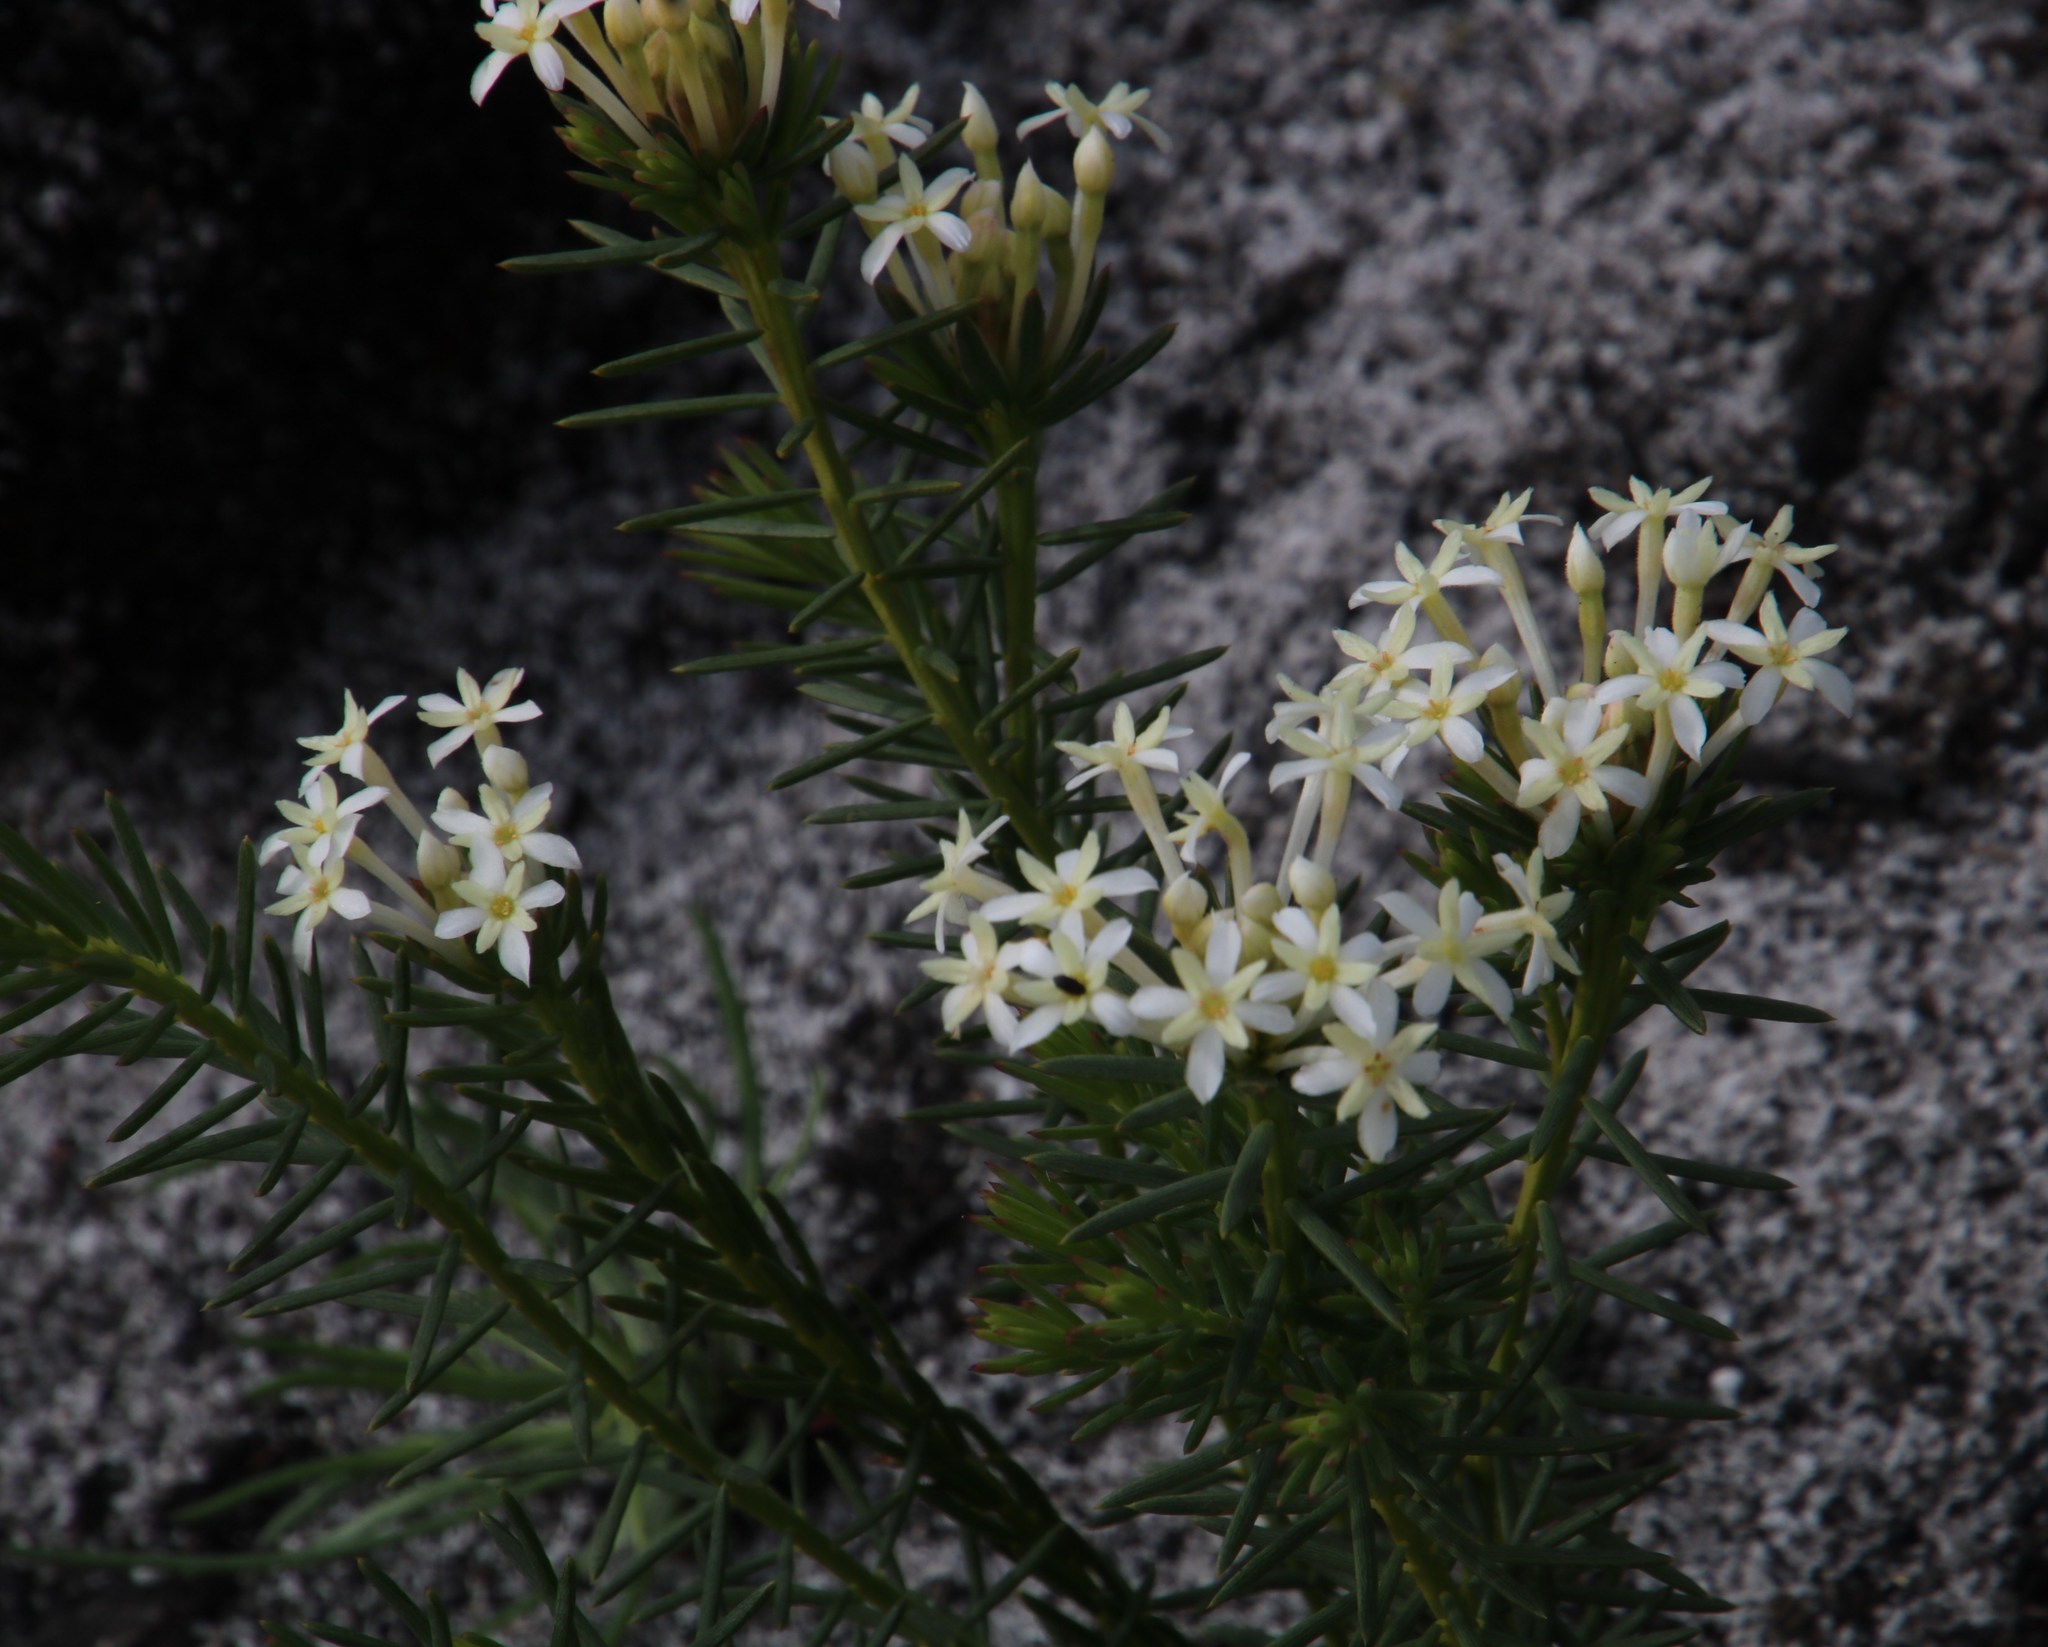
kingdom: Plantae
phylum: Tracheophyta
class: Magnoliopsida
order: Malvales
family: Thymelaeaceae
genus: Gnidia
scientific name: Gnidia pinifolia
